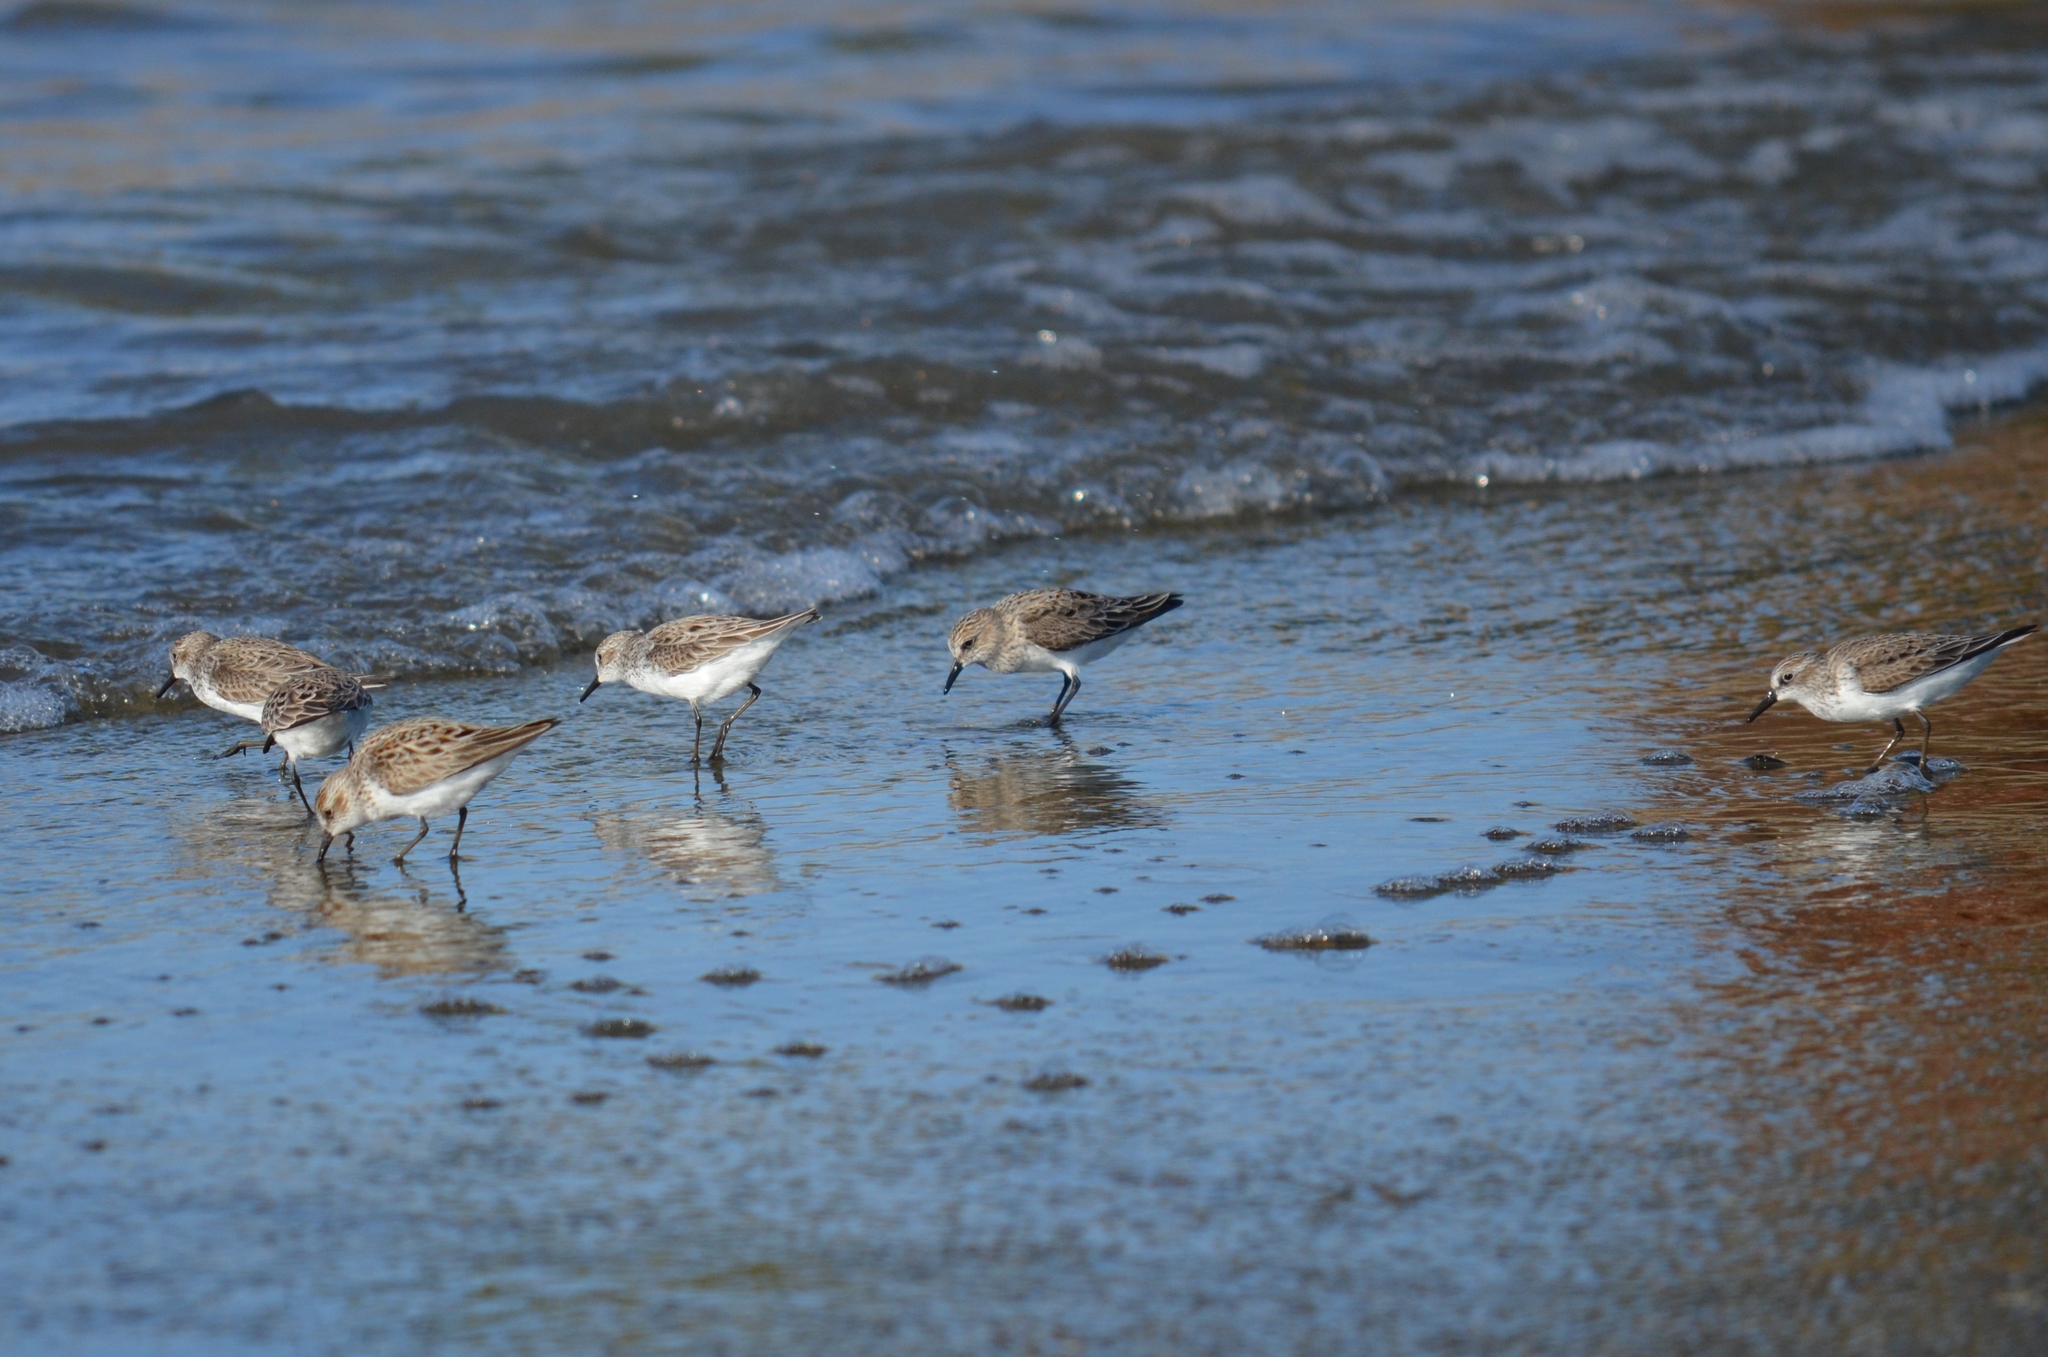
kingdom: Animalia
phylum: Chordata
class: Aves
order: Charadriiformes
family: Scolopacidae
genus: Calidris
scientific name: Calidris pusilla
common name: Semipalmated sandpiper
